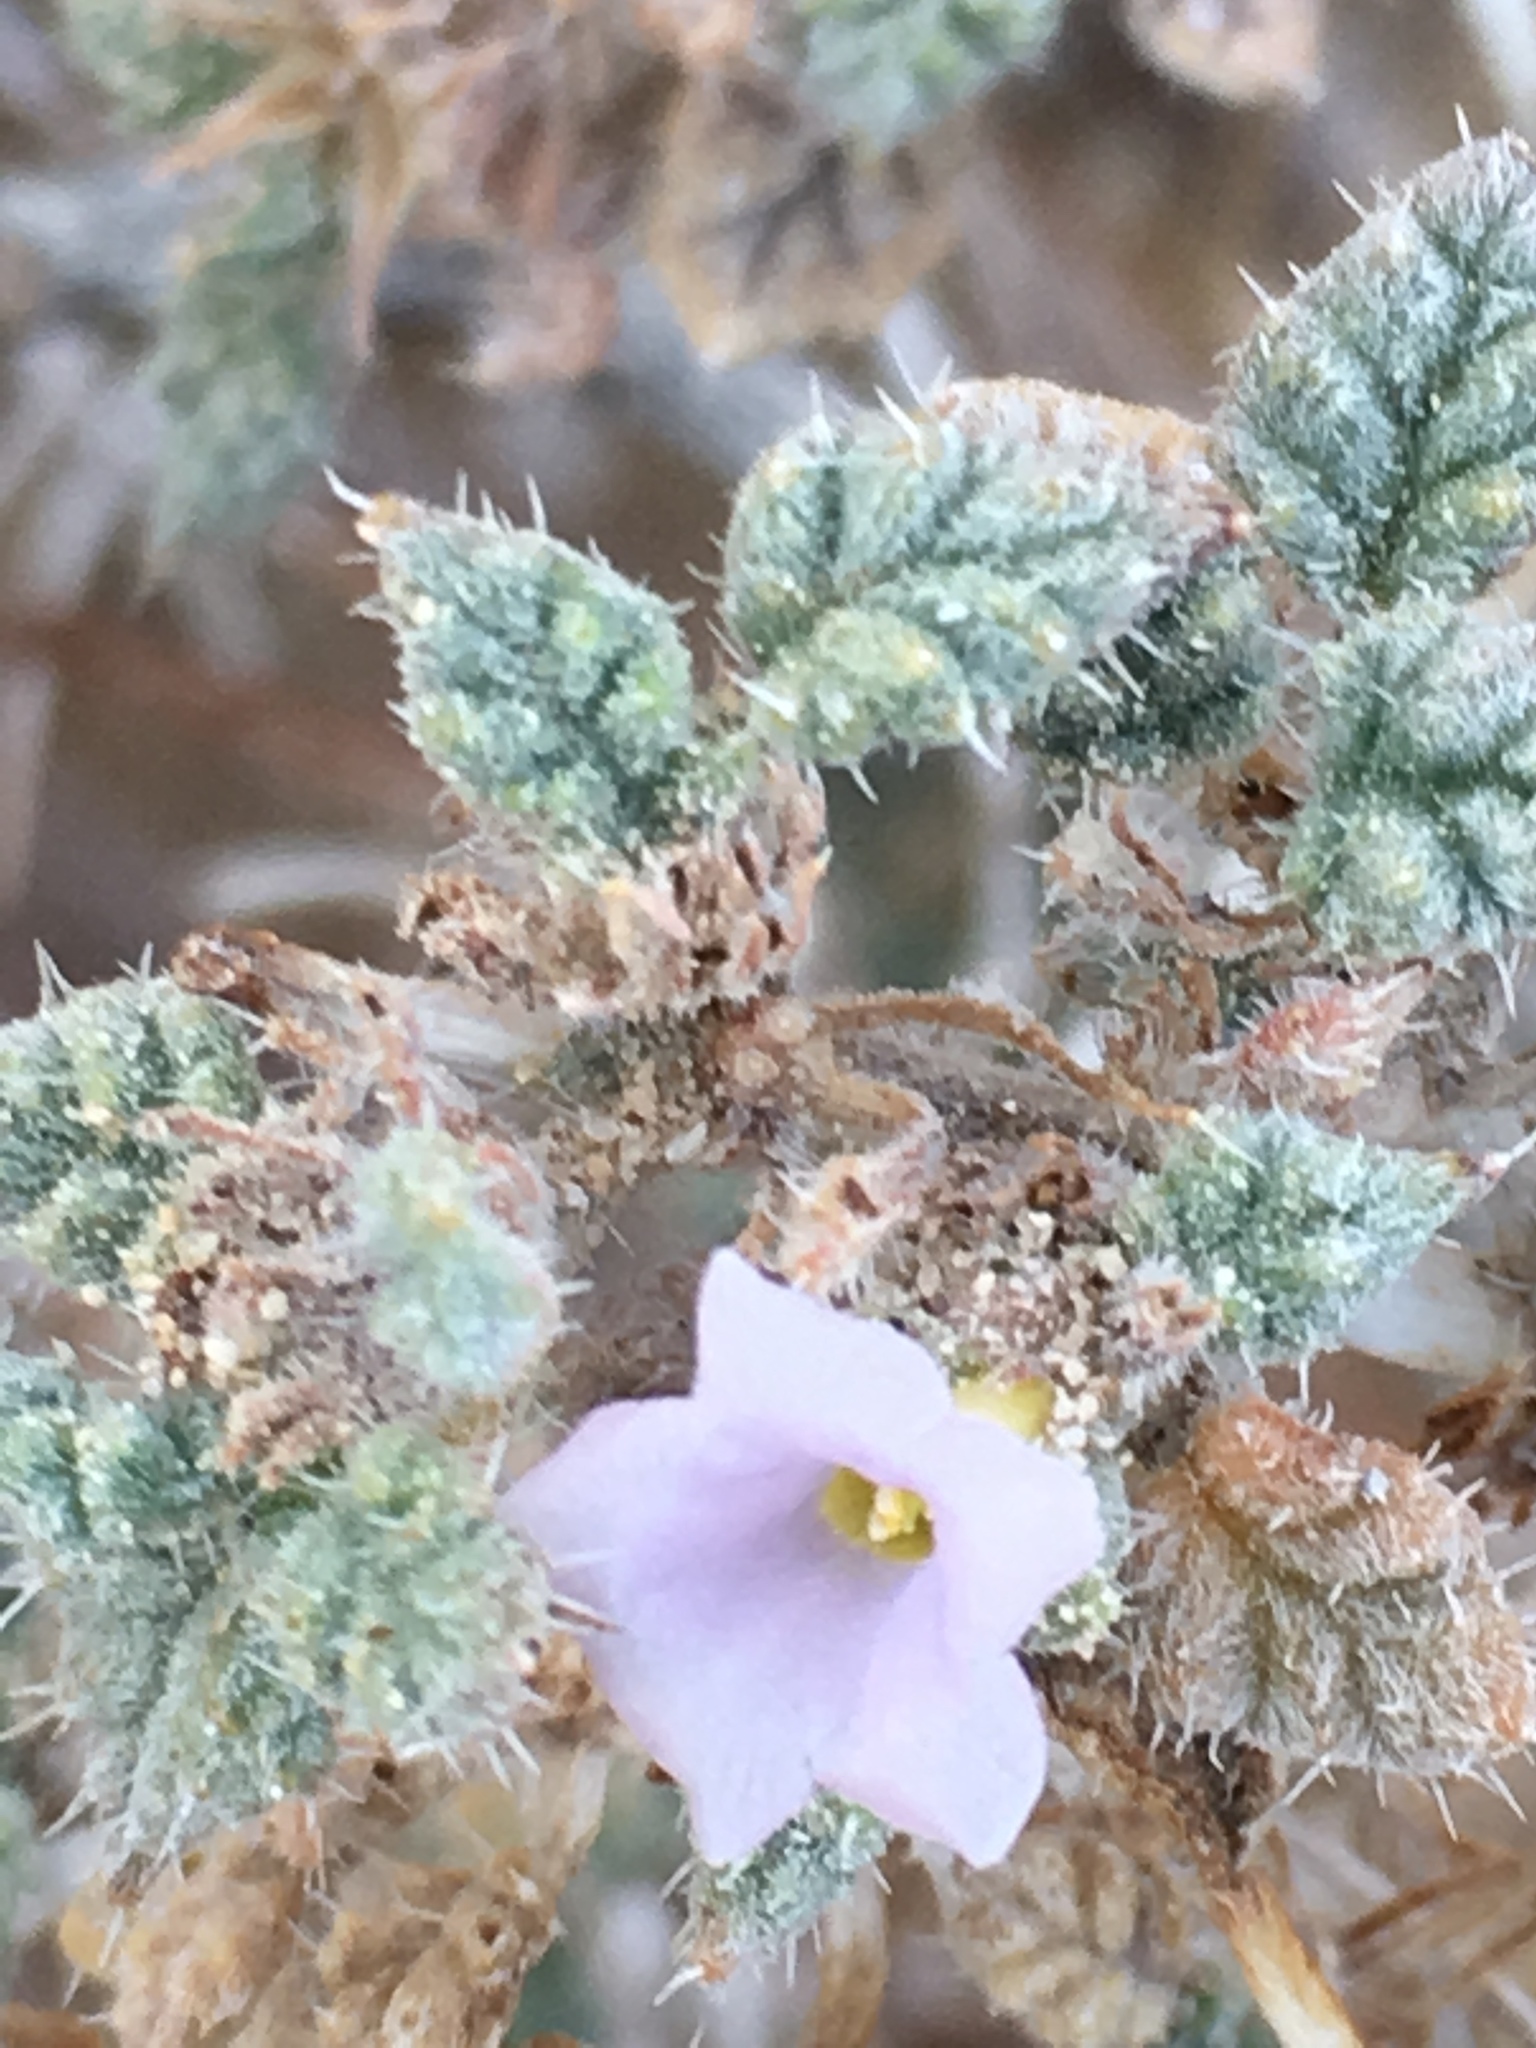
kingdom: Plantae
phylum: Tracheophyta
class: Magnoliopsida
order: Boraginales
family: Ehretiaceae
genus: Tiquilia
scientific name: Tiquilia palmeri
